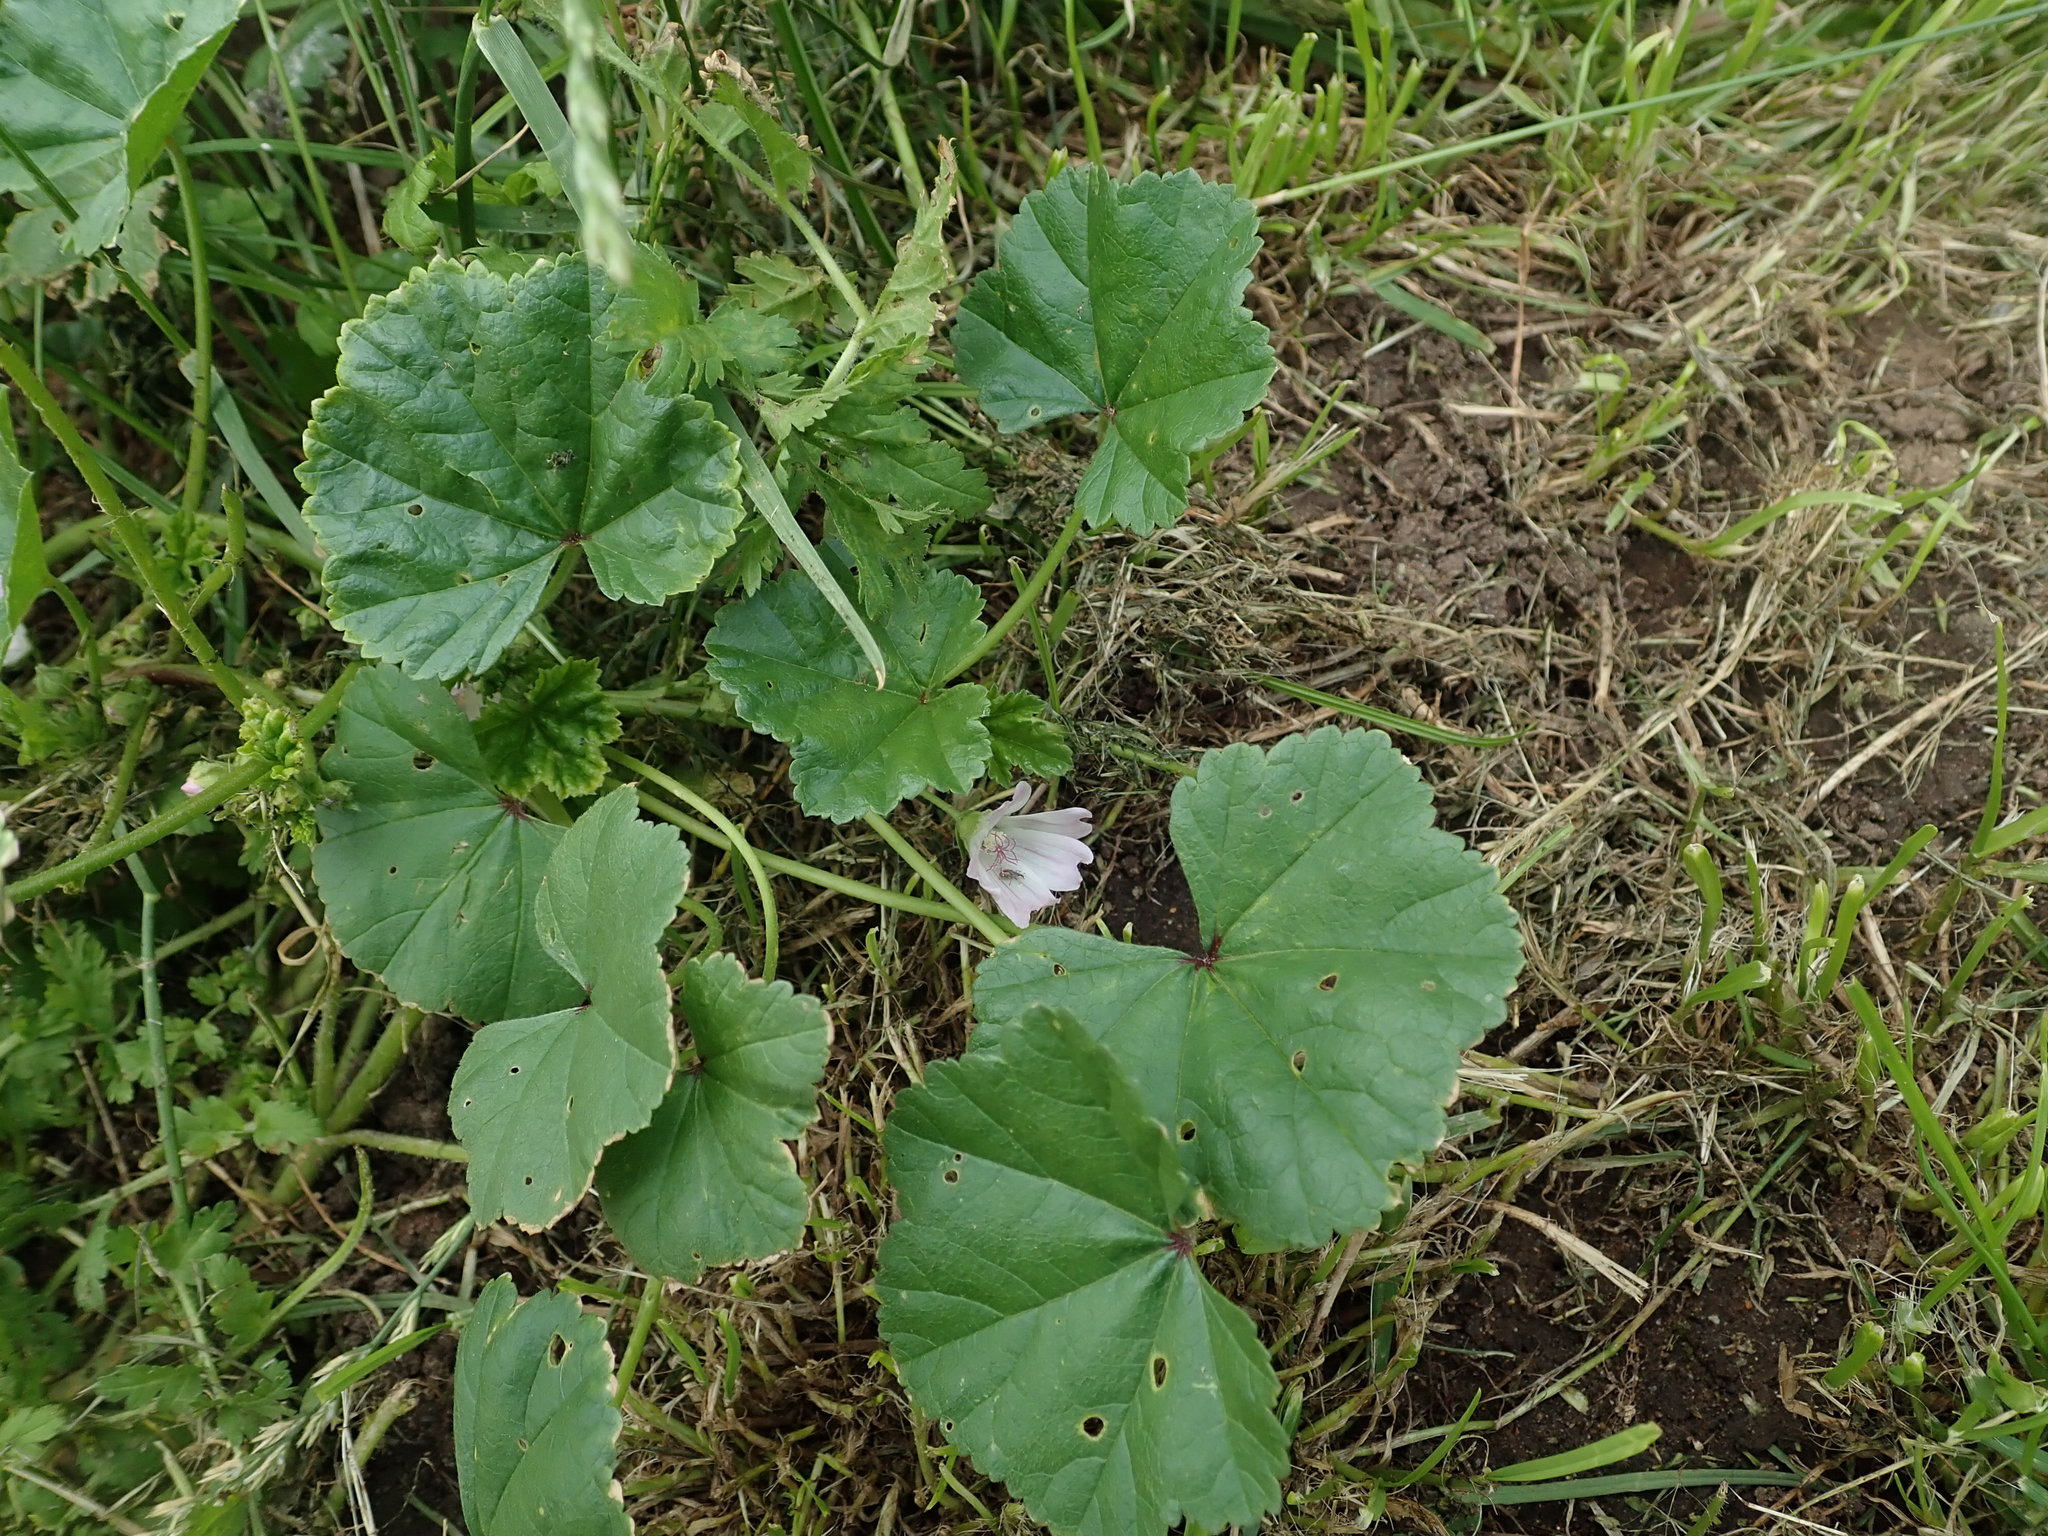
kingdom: Plantae
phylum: Tracheophyta
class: Magnoliopsida
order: Malvales
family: Malvaceae
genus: Malva
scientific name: Malva neglecta
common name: Common mallow
